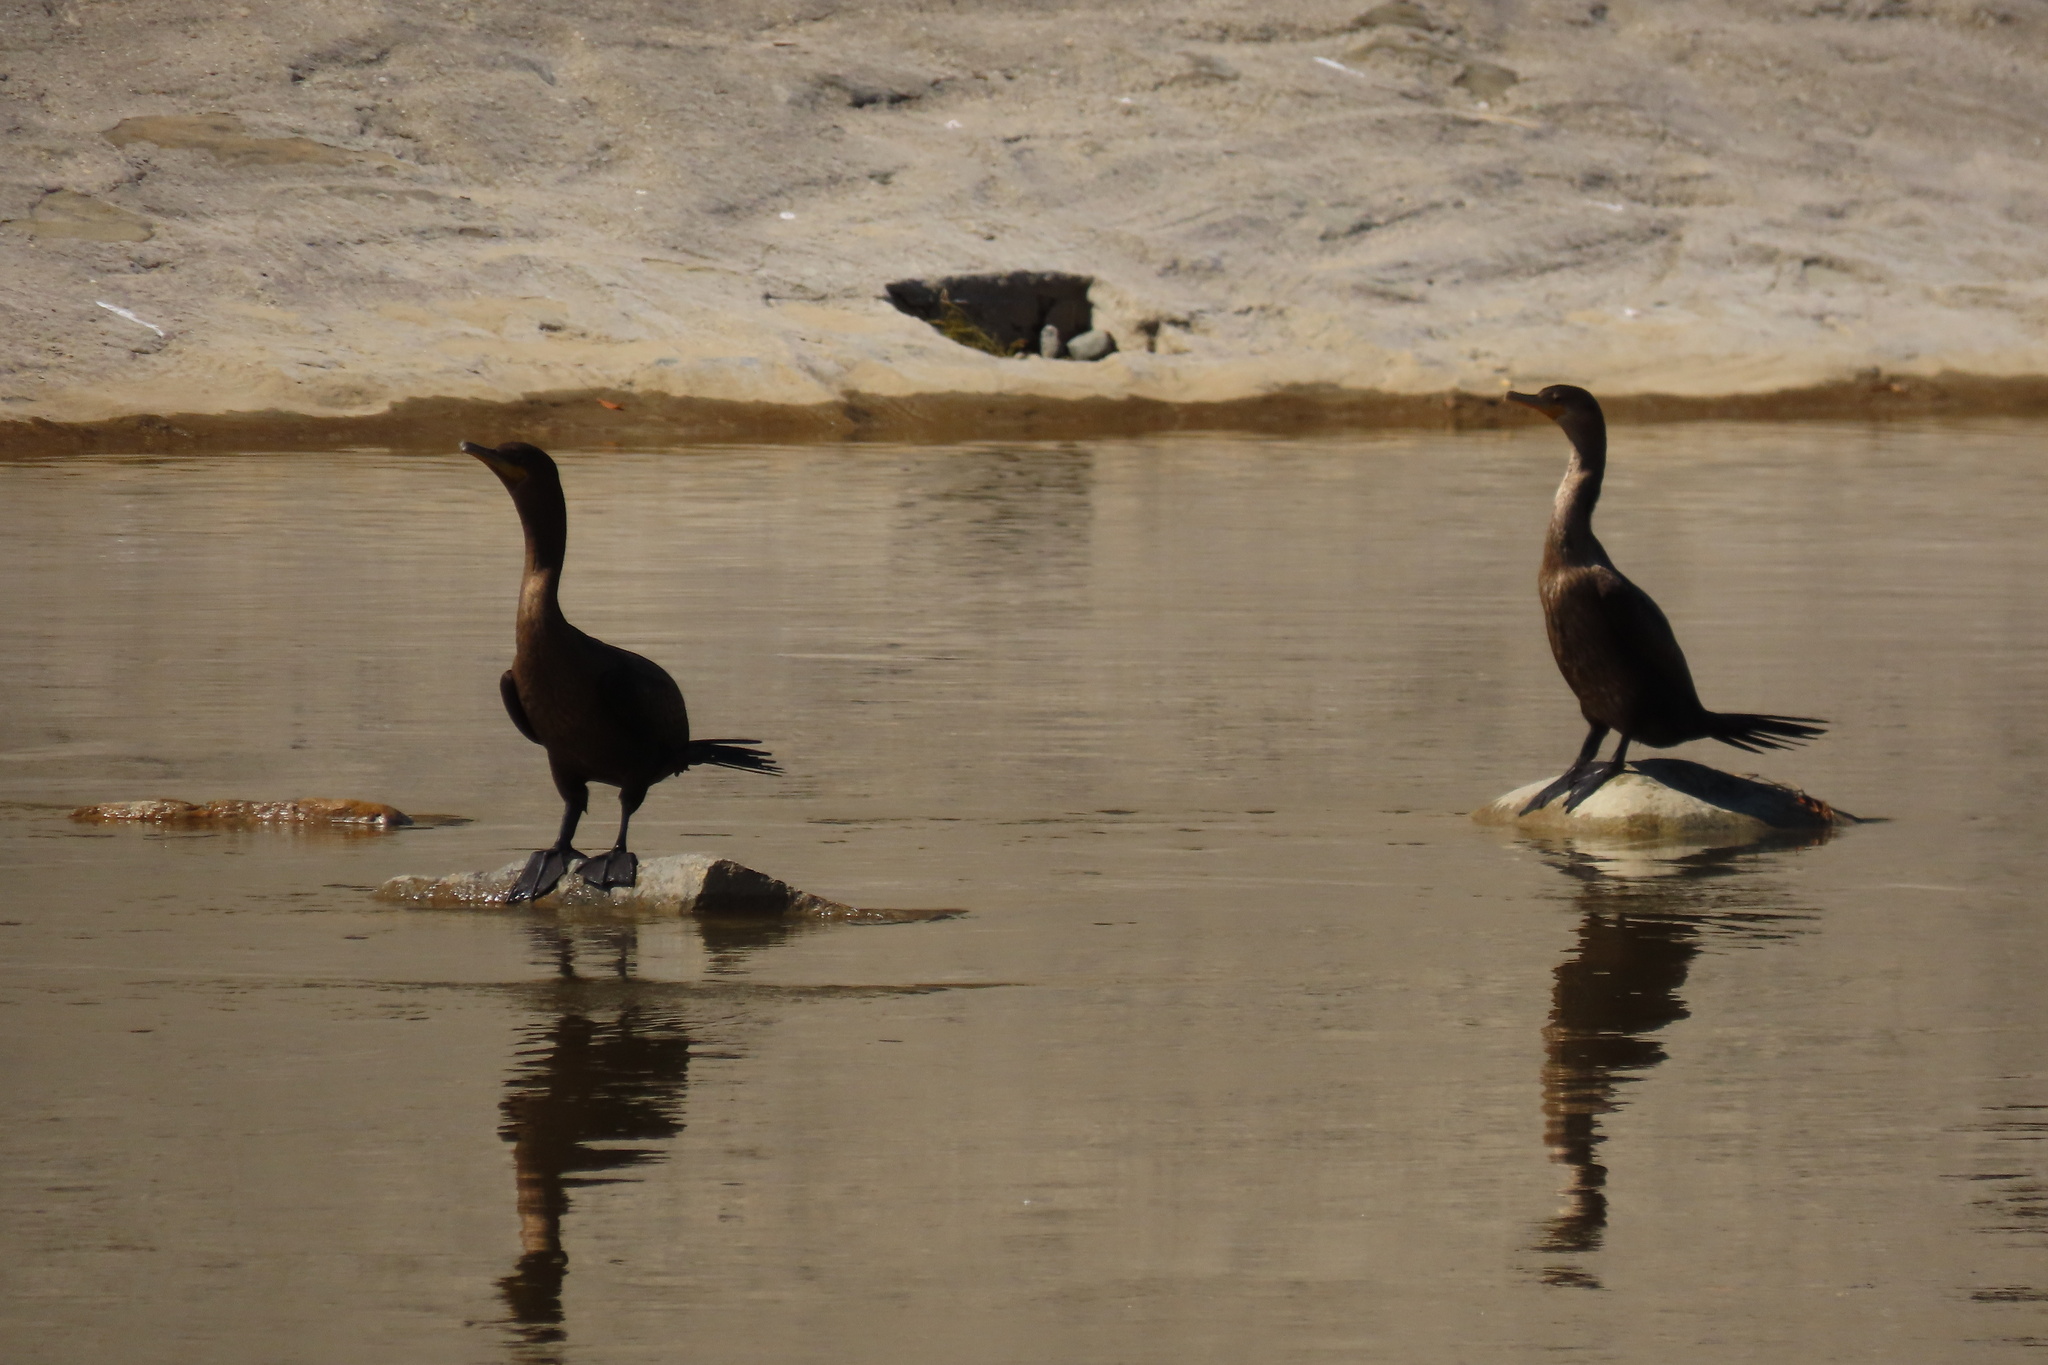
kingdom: Animalia
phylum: Chordata
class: Aves
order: Suliformes
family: Phalacrocoracidae
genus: Phalacrocorax
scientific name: Phalacrocorax auritus
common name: Double-crested cormorant
